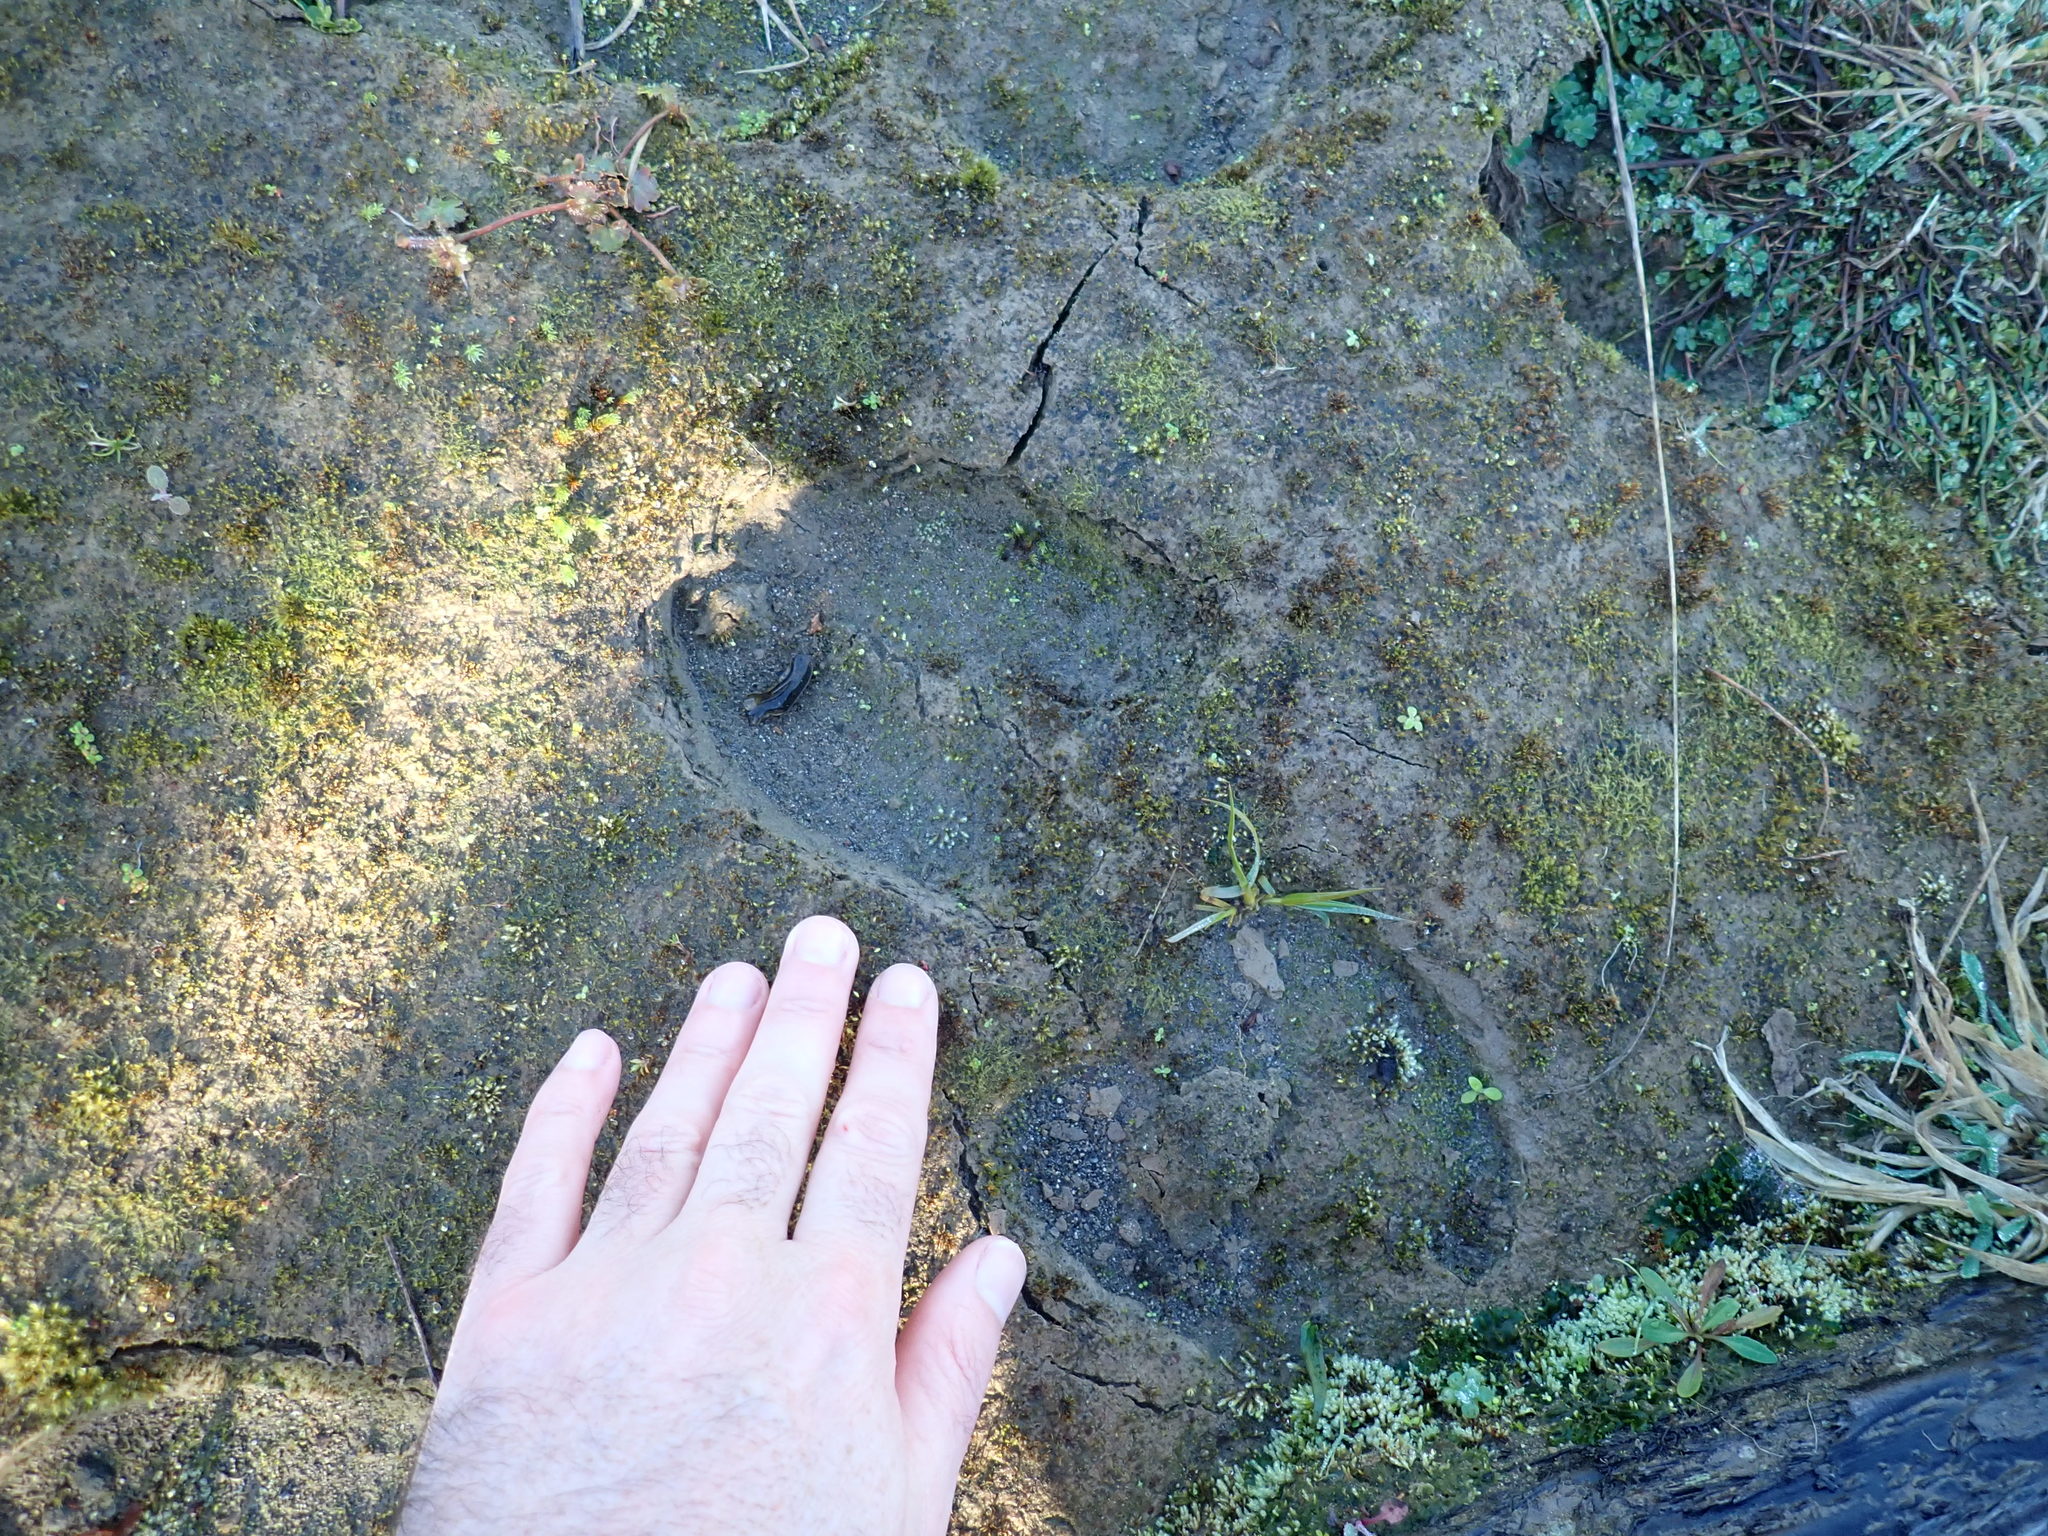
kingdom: Animalia
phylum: Chordata
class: Mammalia
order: Artiodactyla
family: Bovidae
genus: Bos
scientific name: Bos taurus
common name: Domesticated cattle
